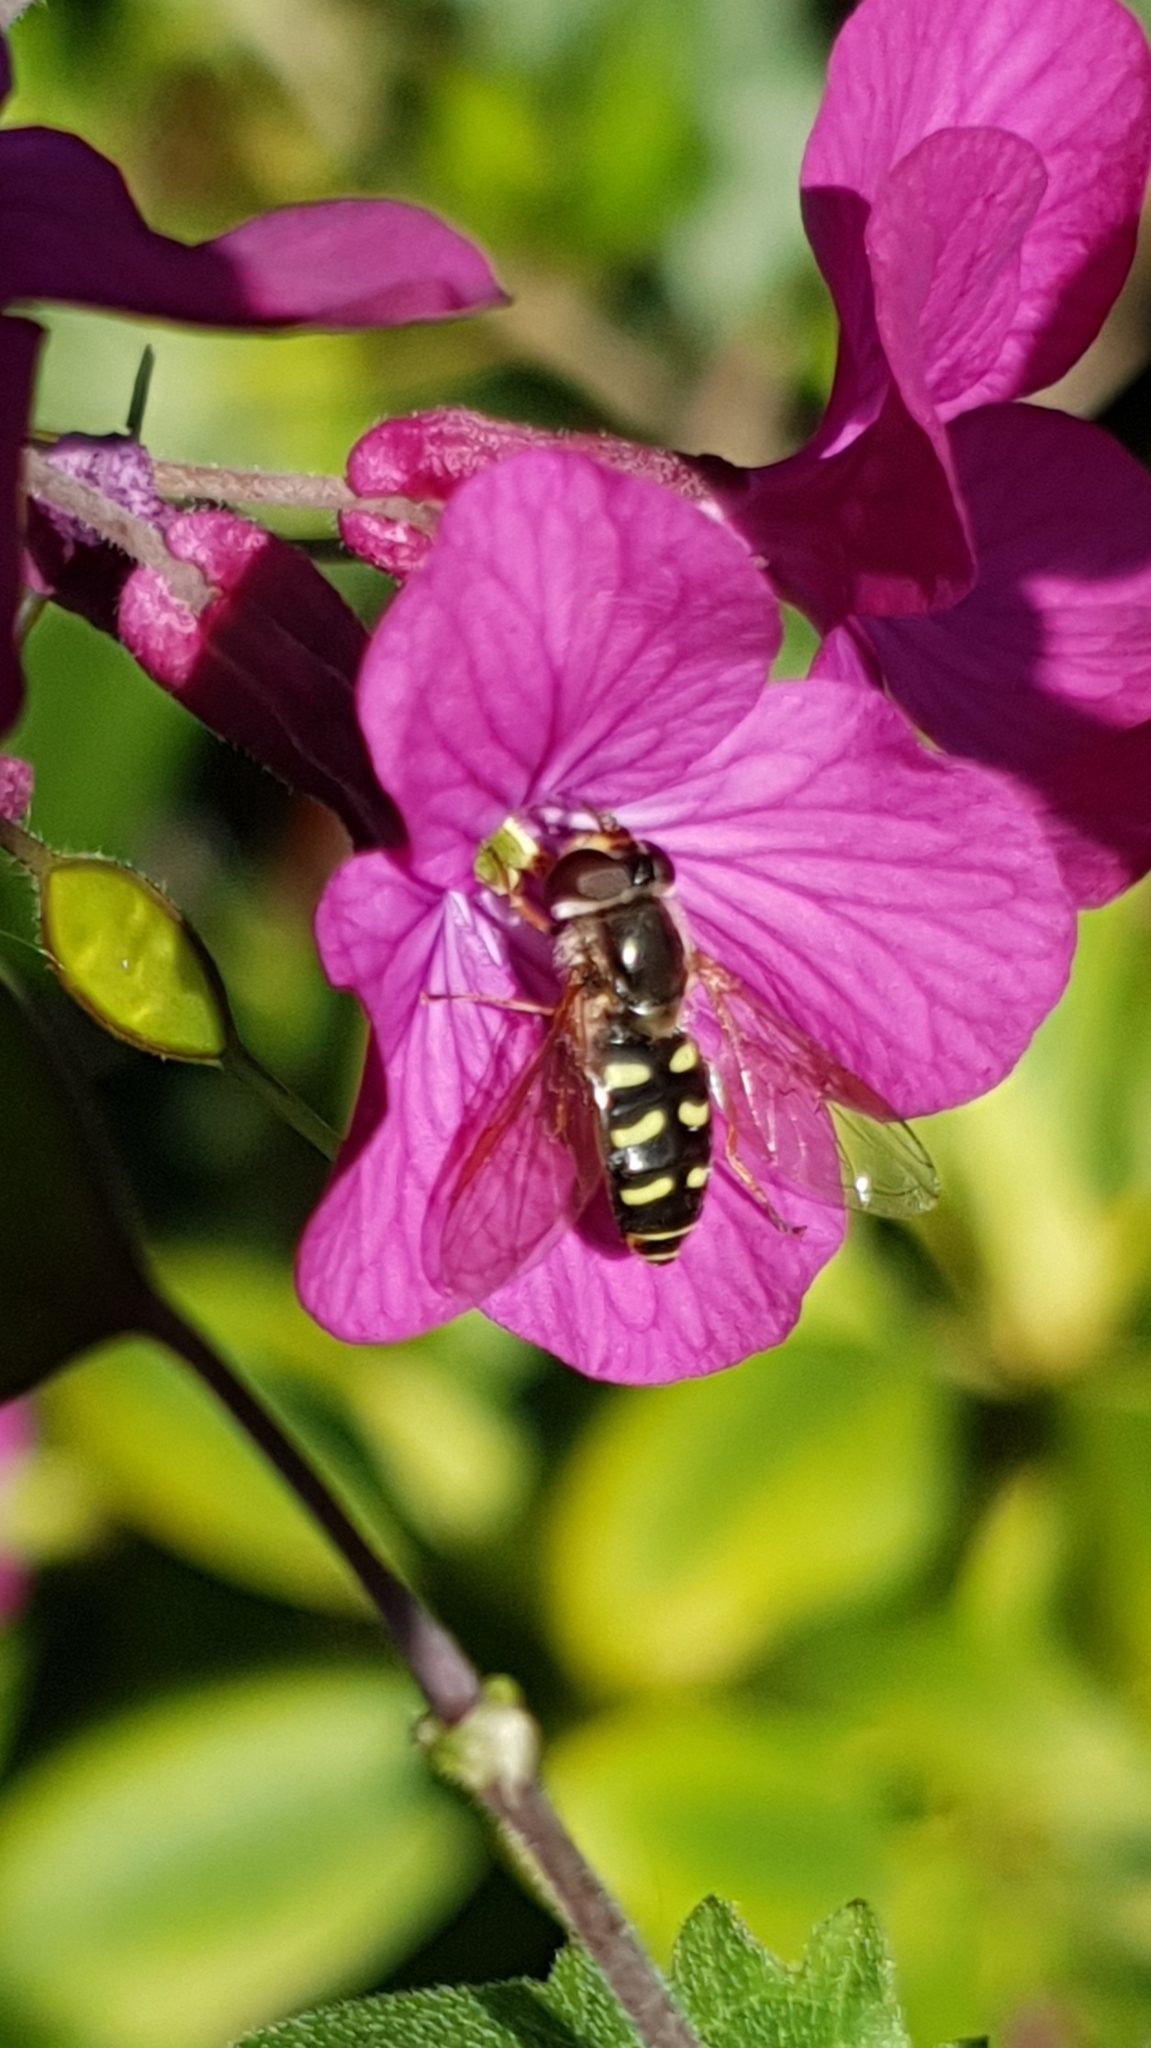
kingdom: Animalia
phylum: Arthropoda
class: Insecta
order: Diptera
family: Syrphidae
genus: Eupeodes
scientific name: Eupeodes luniger
